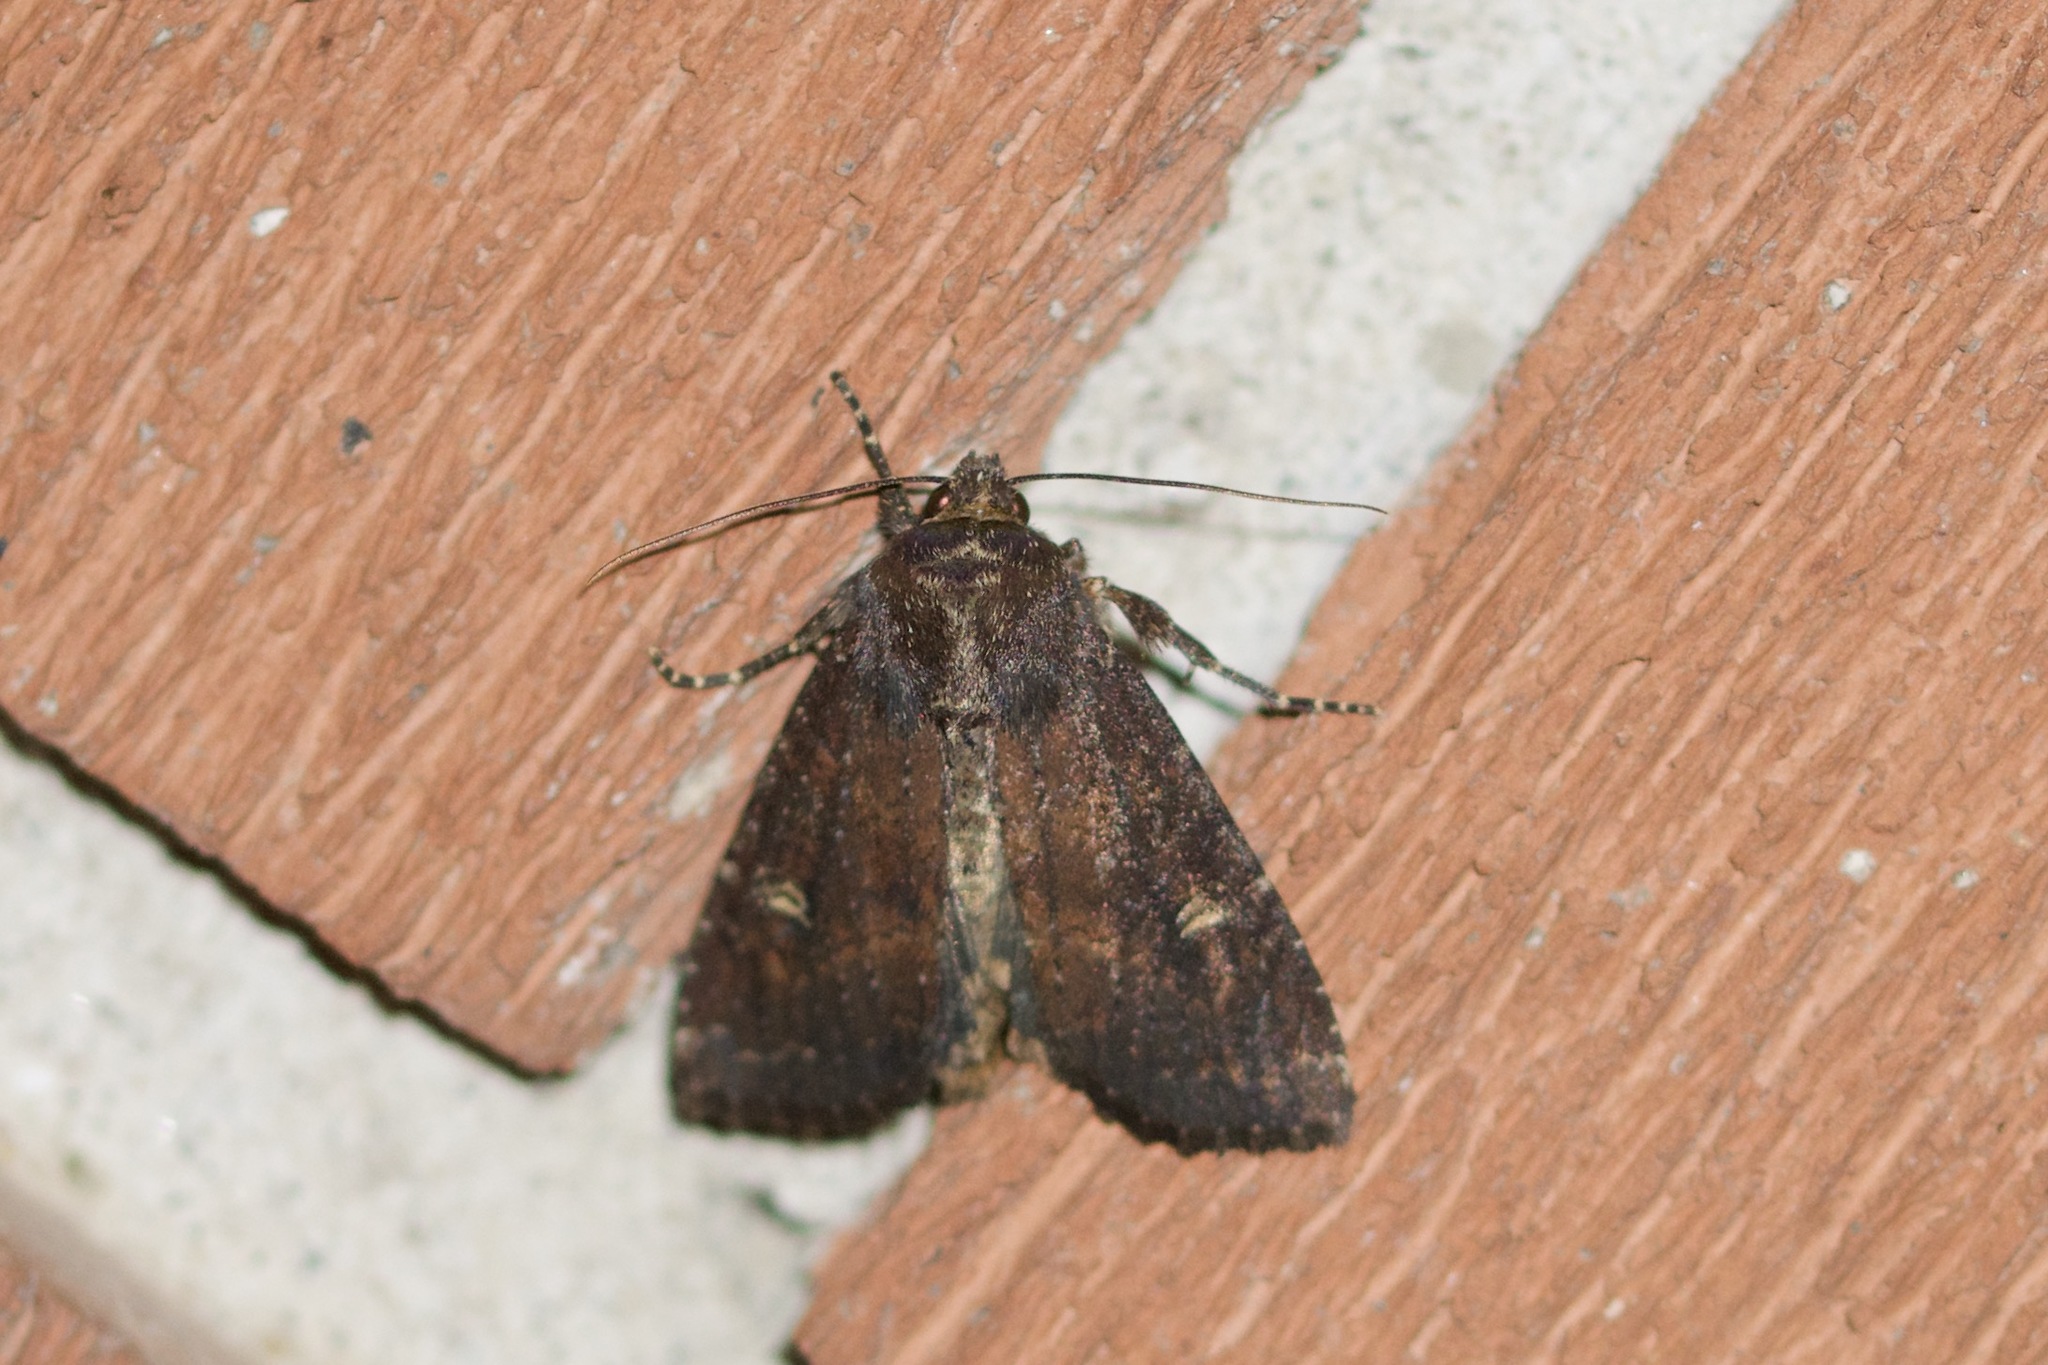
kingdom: Animalia
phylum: Arthropoda
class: Insecta
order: Lepidoptera
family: Noctuidae
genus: Apamea
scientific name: Apamea dubitans
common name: Doubtful apamea moth
